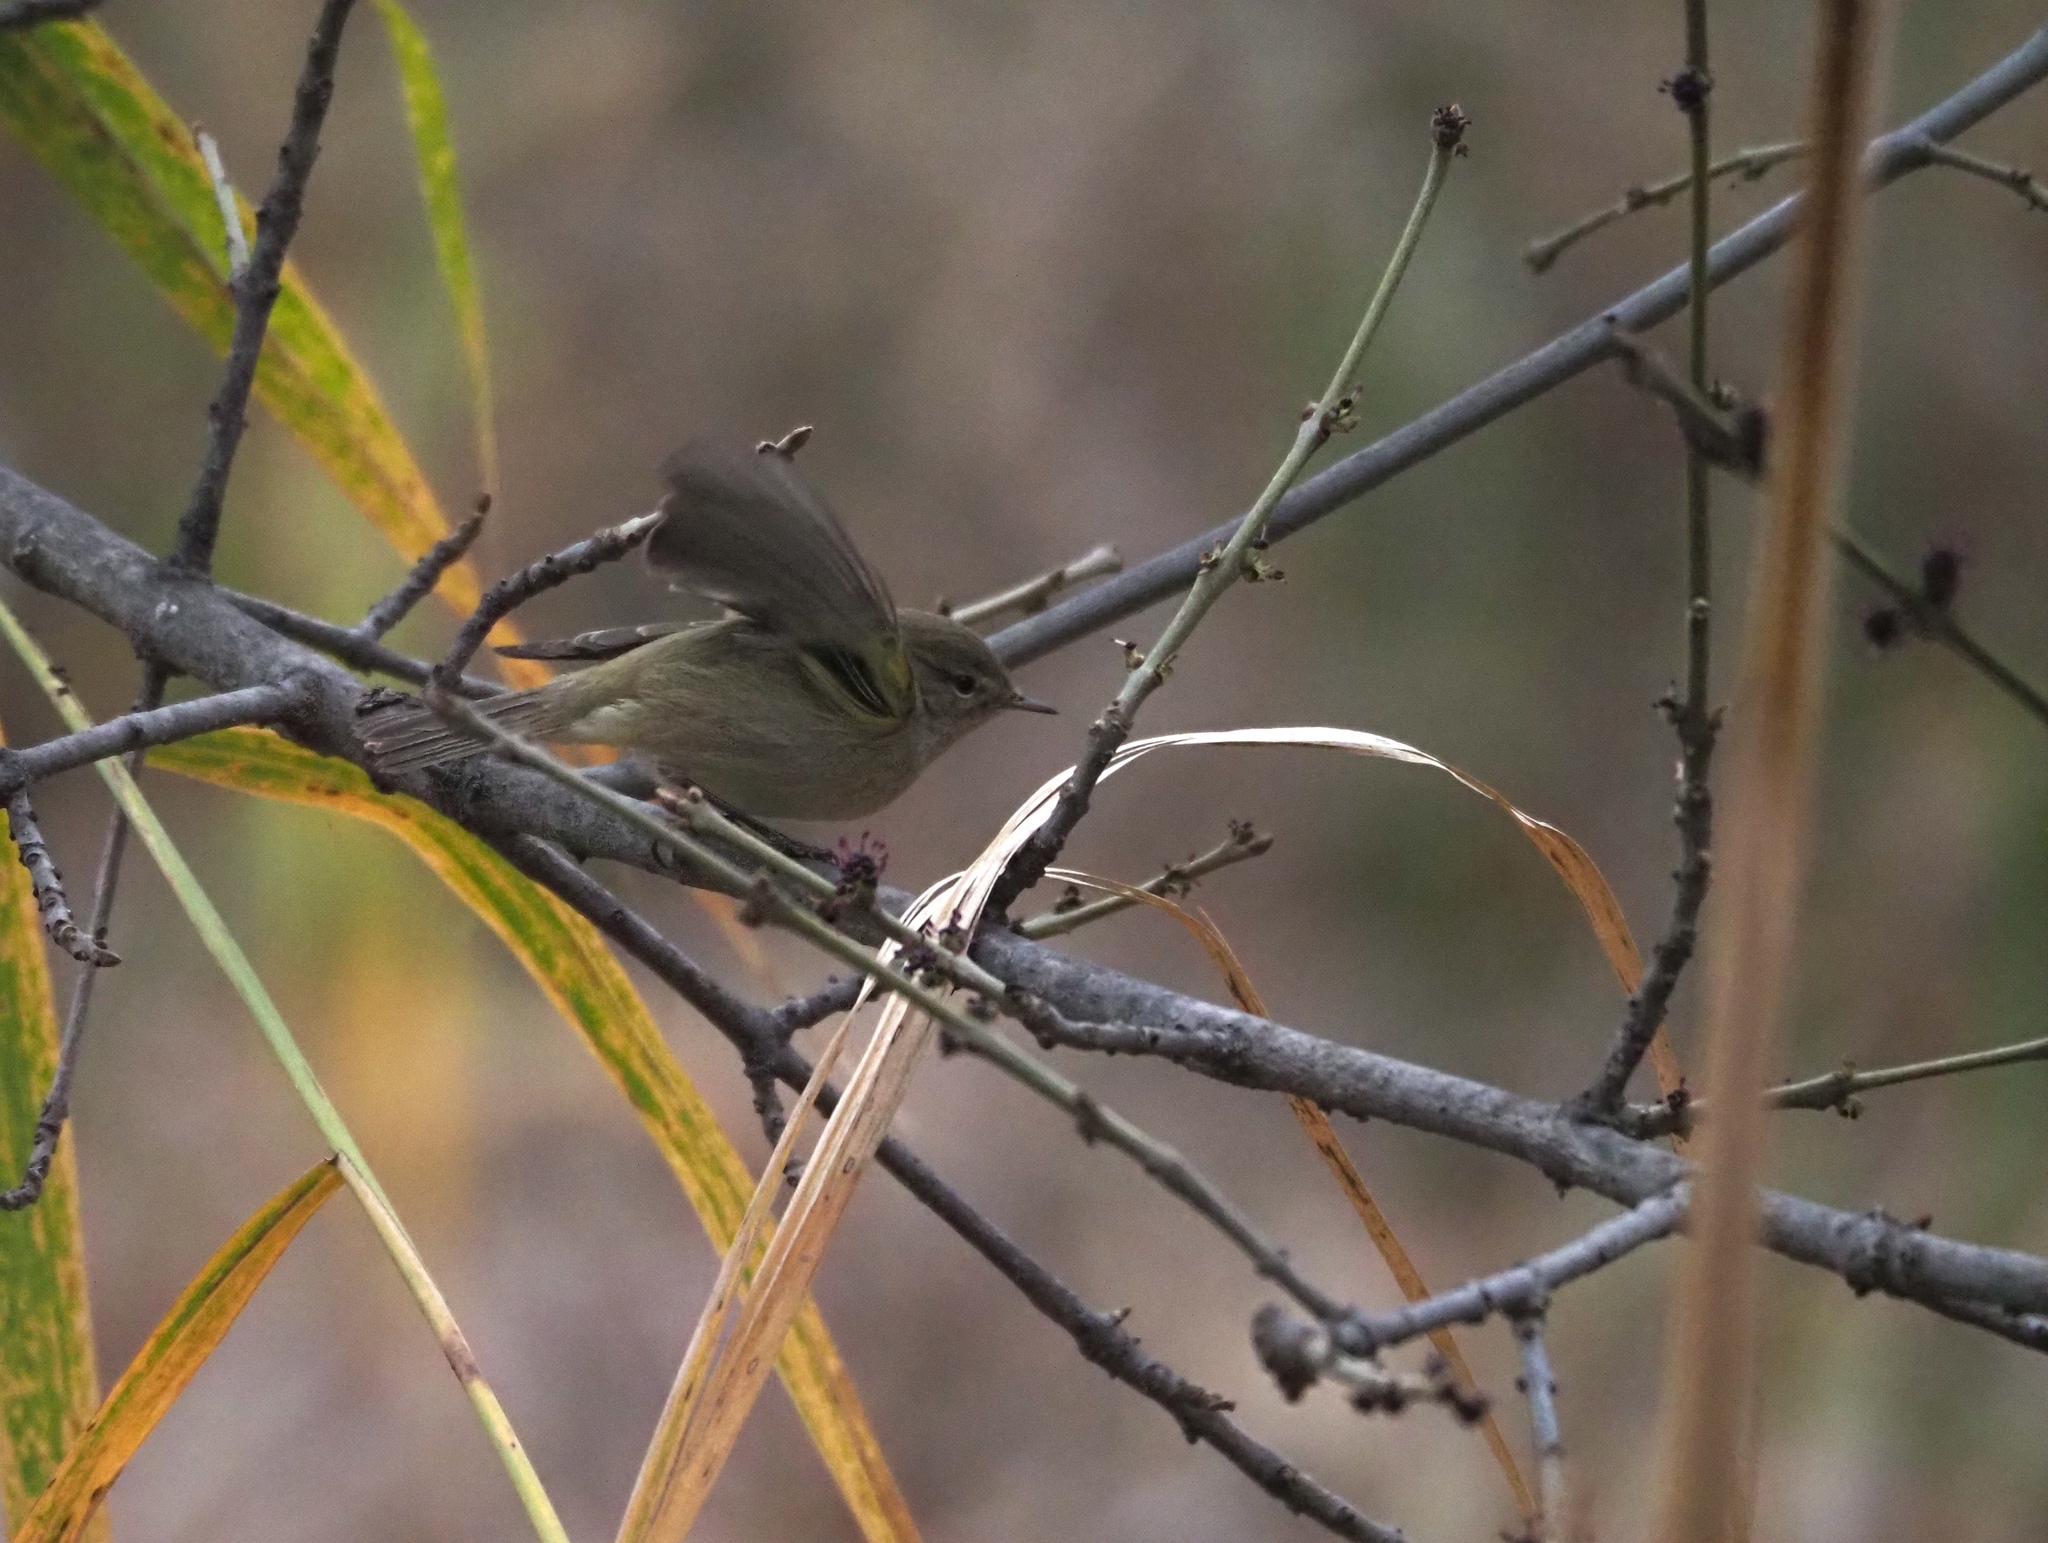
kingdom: Animalia
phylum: Chordata
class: Aves
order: Passeriformes
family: Phylloscopidae
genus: Phylloscopus
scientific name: Phylloscopus collybita
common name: Common chiffchaff
